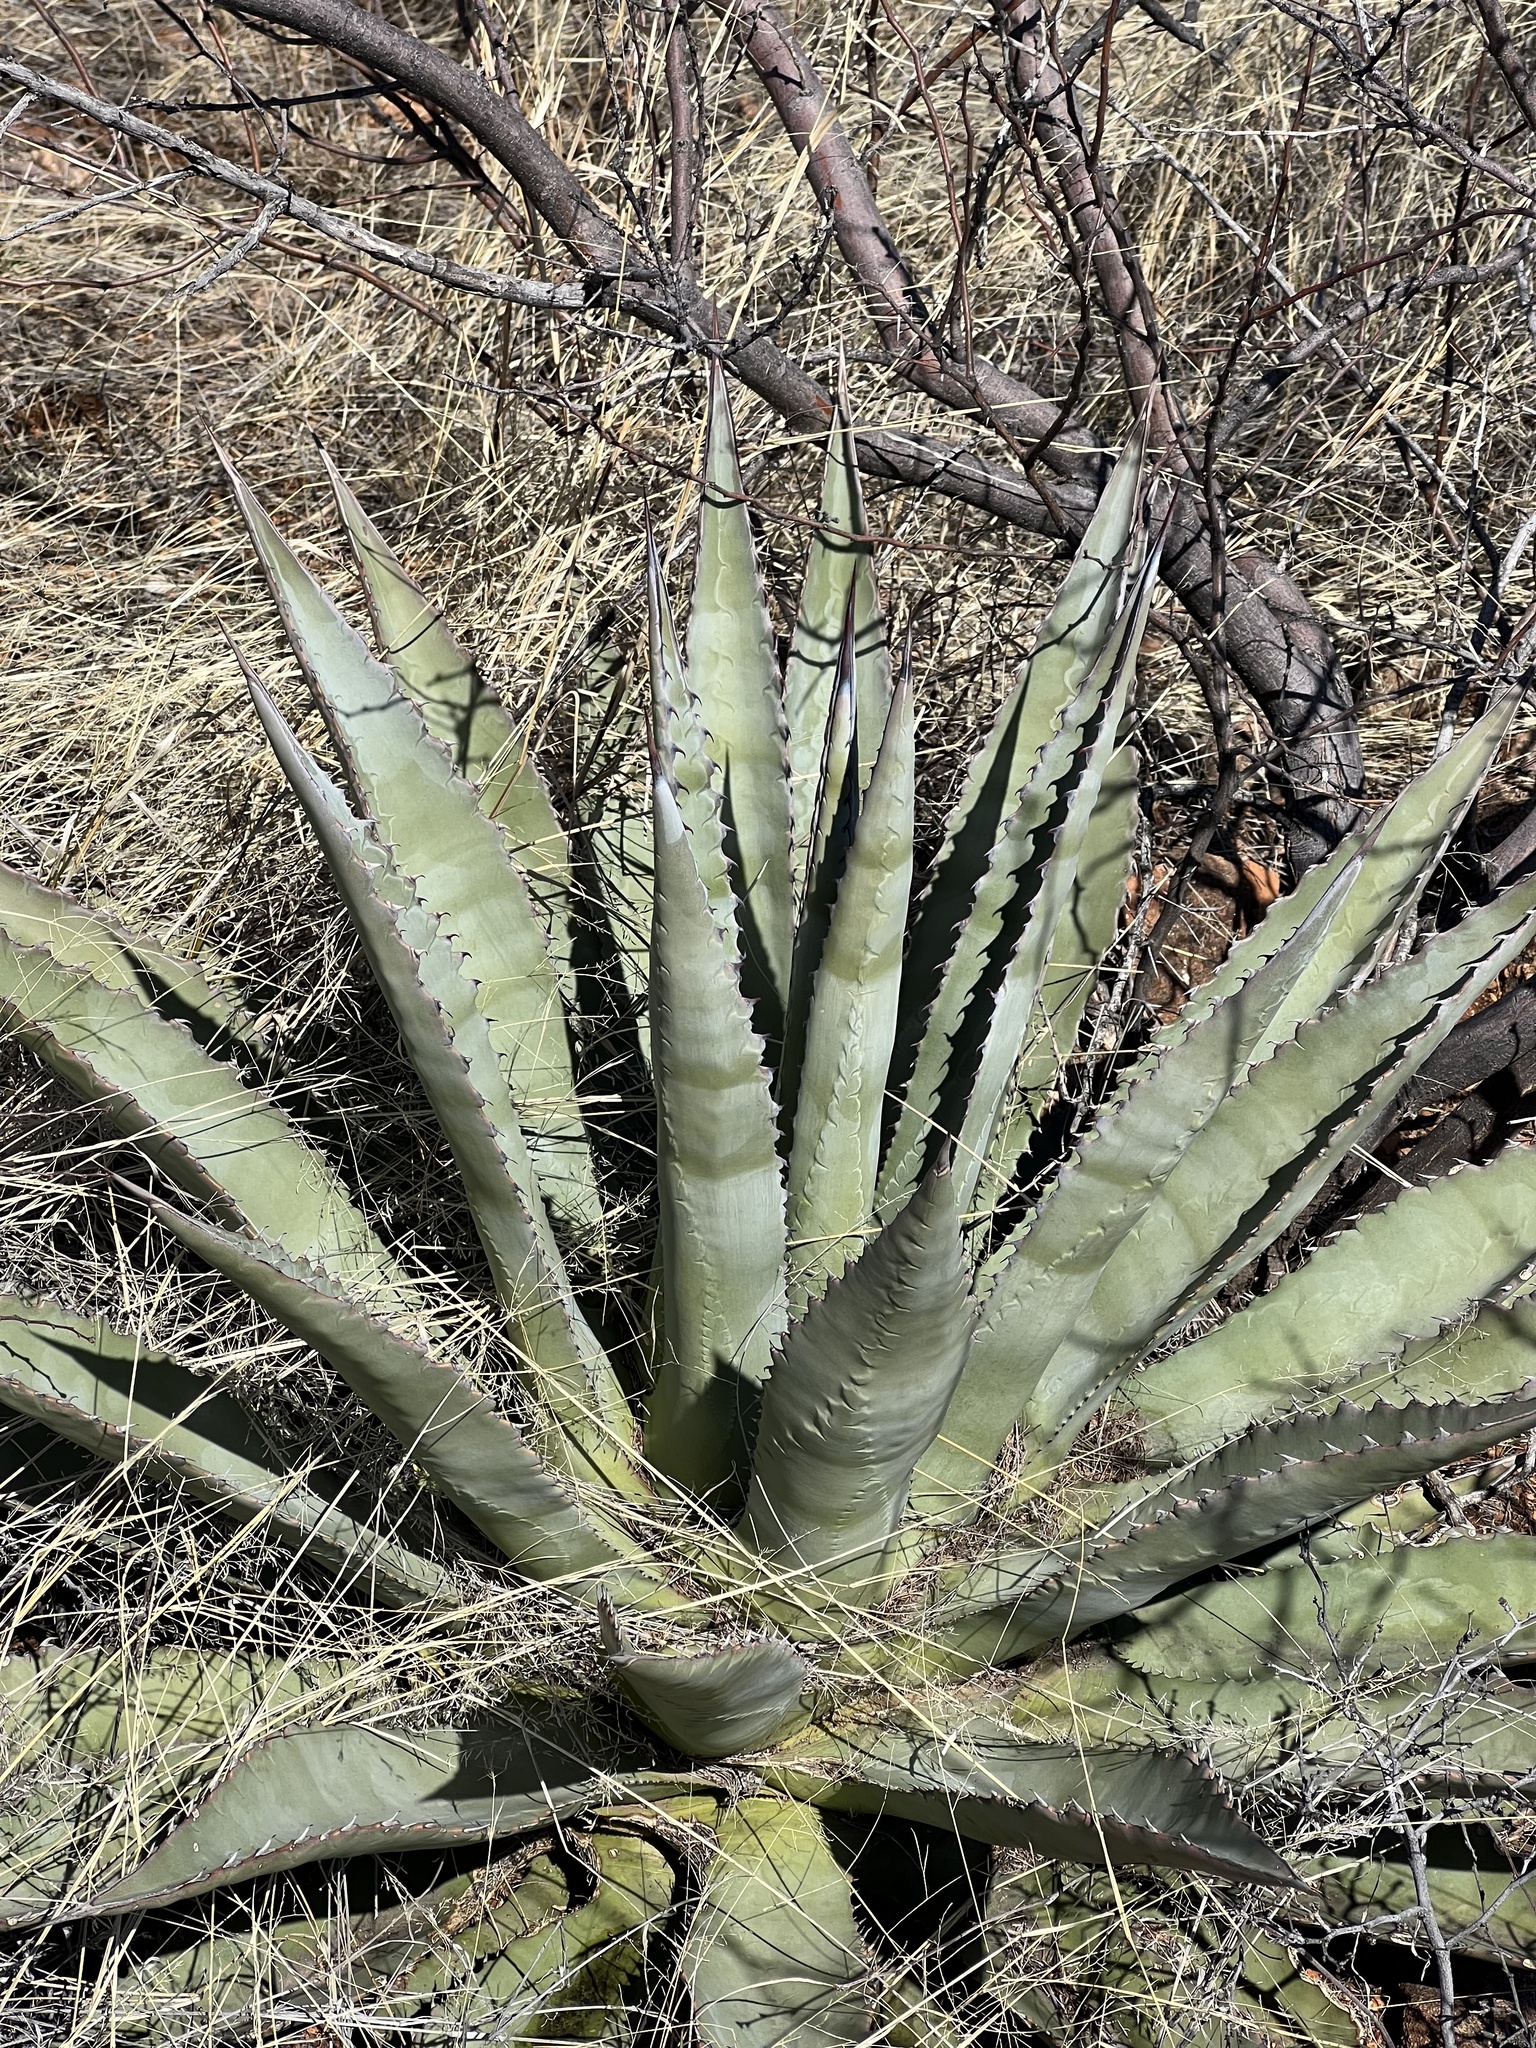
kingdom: Plantae
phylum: Tracheophyta
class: Liliopsida
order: Asparagales
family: Asparagaceae
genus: Agave
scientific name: Agave palmeri
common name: Palmer agave
